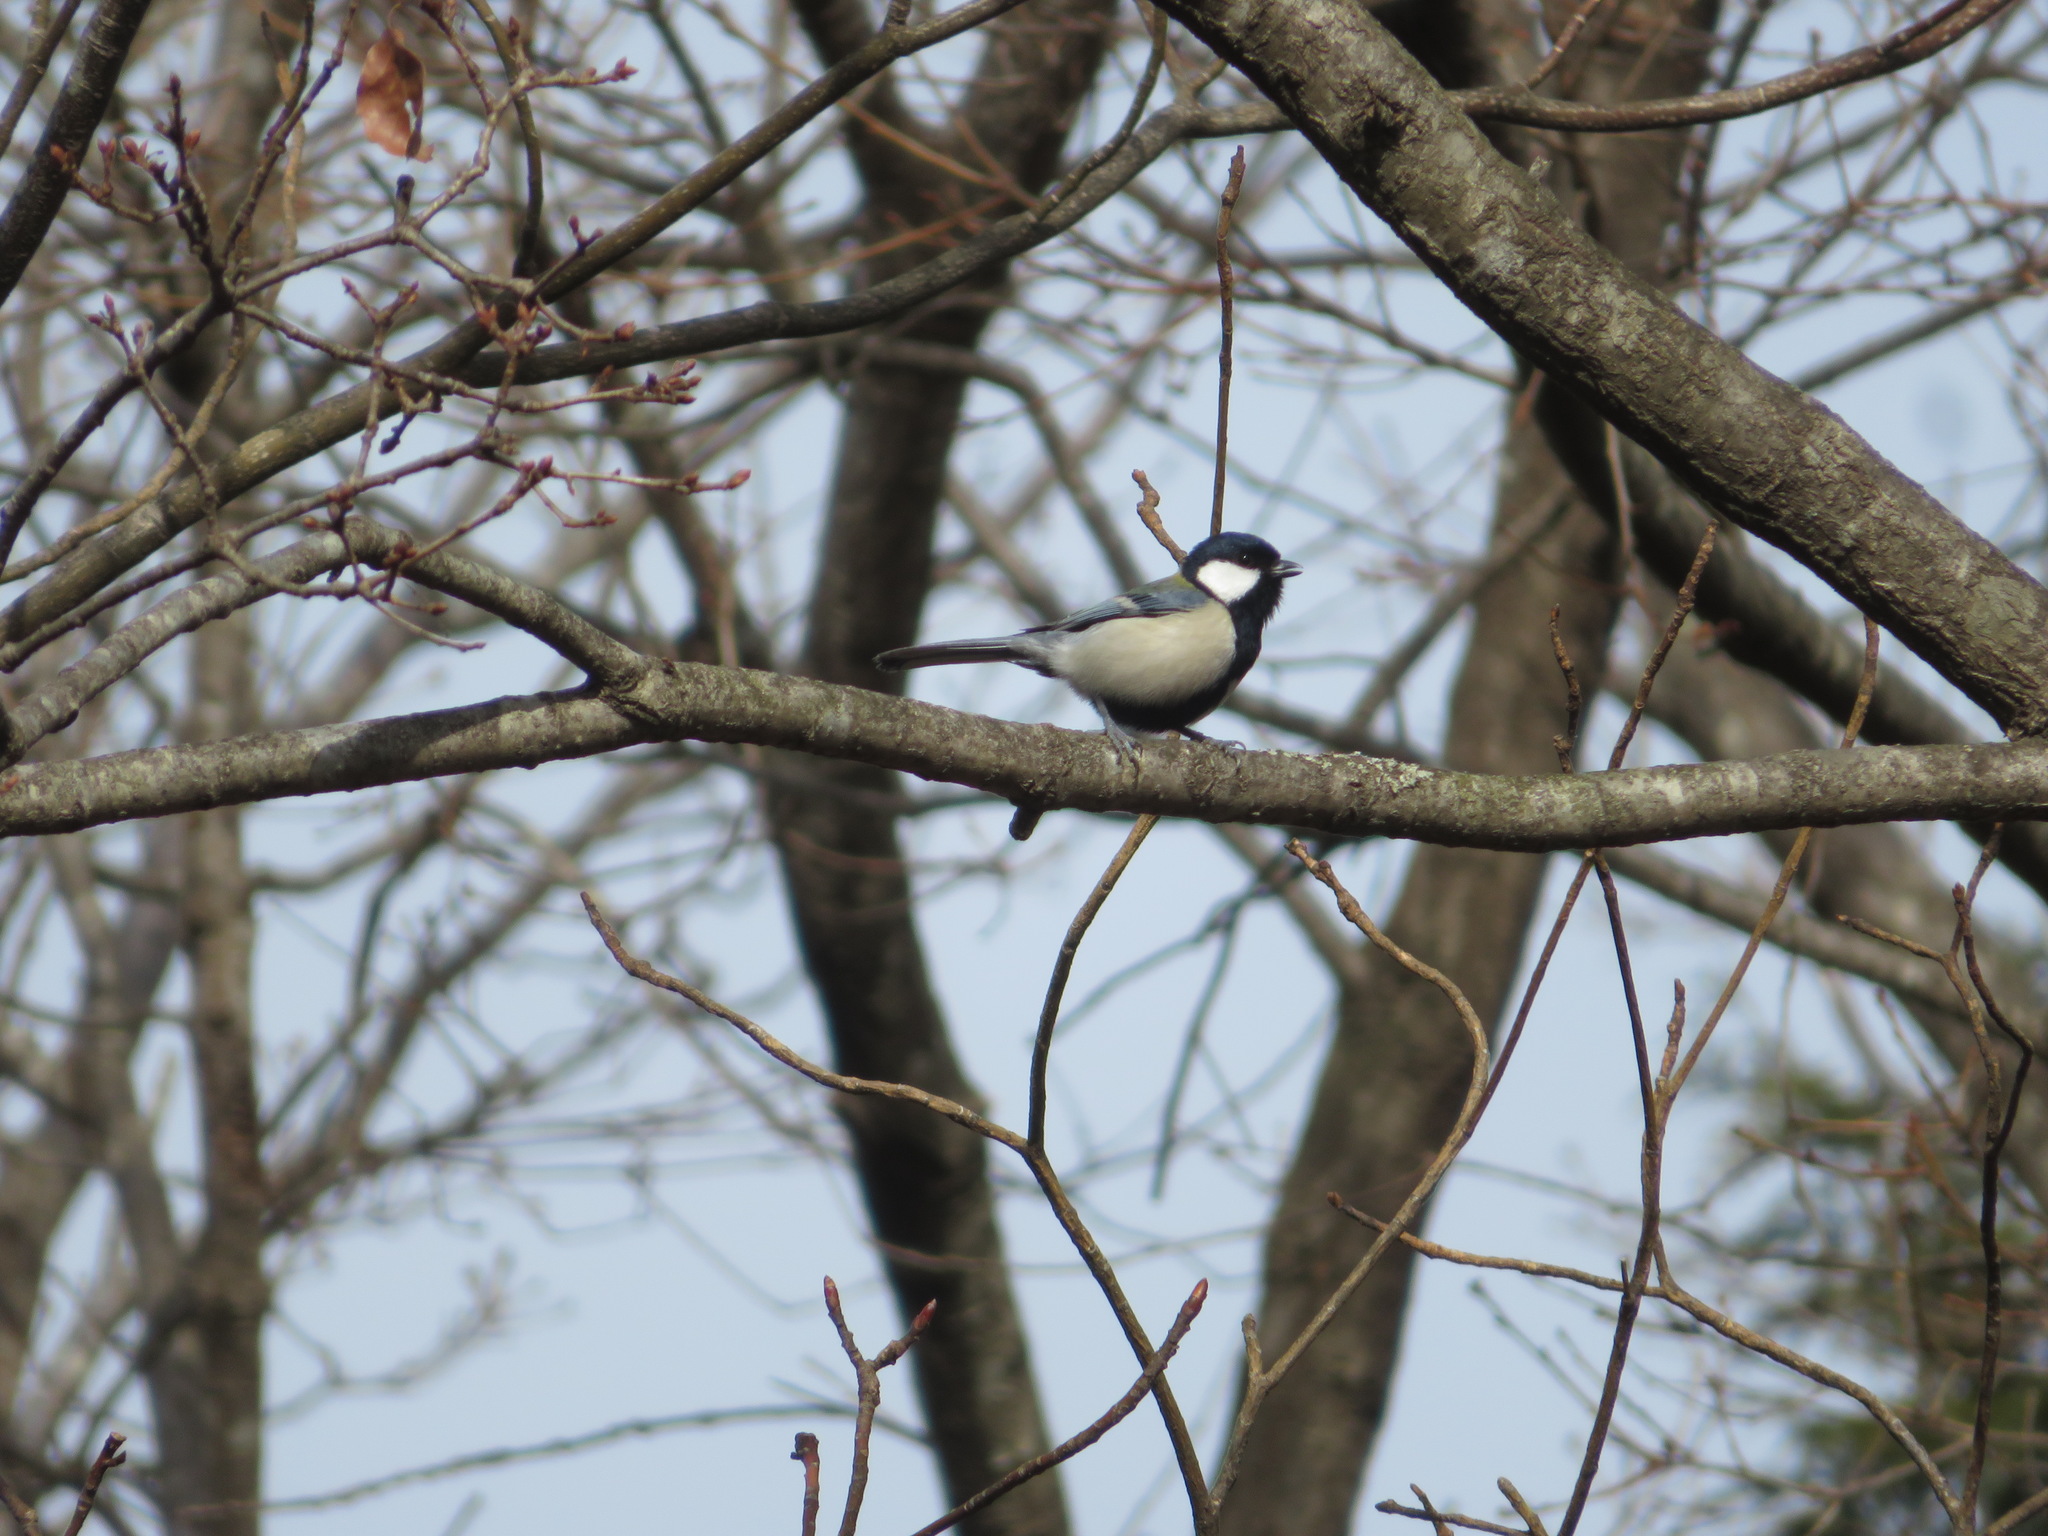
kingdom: Animalia
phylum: Chordata
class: Aves
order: Passeriformes
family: Paridae
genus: Parus
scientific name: Parus minor
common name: Japanese tit
